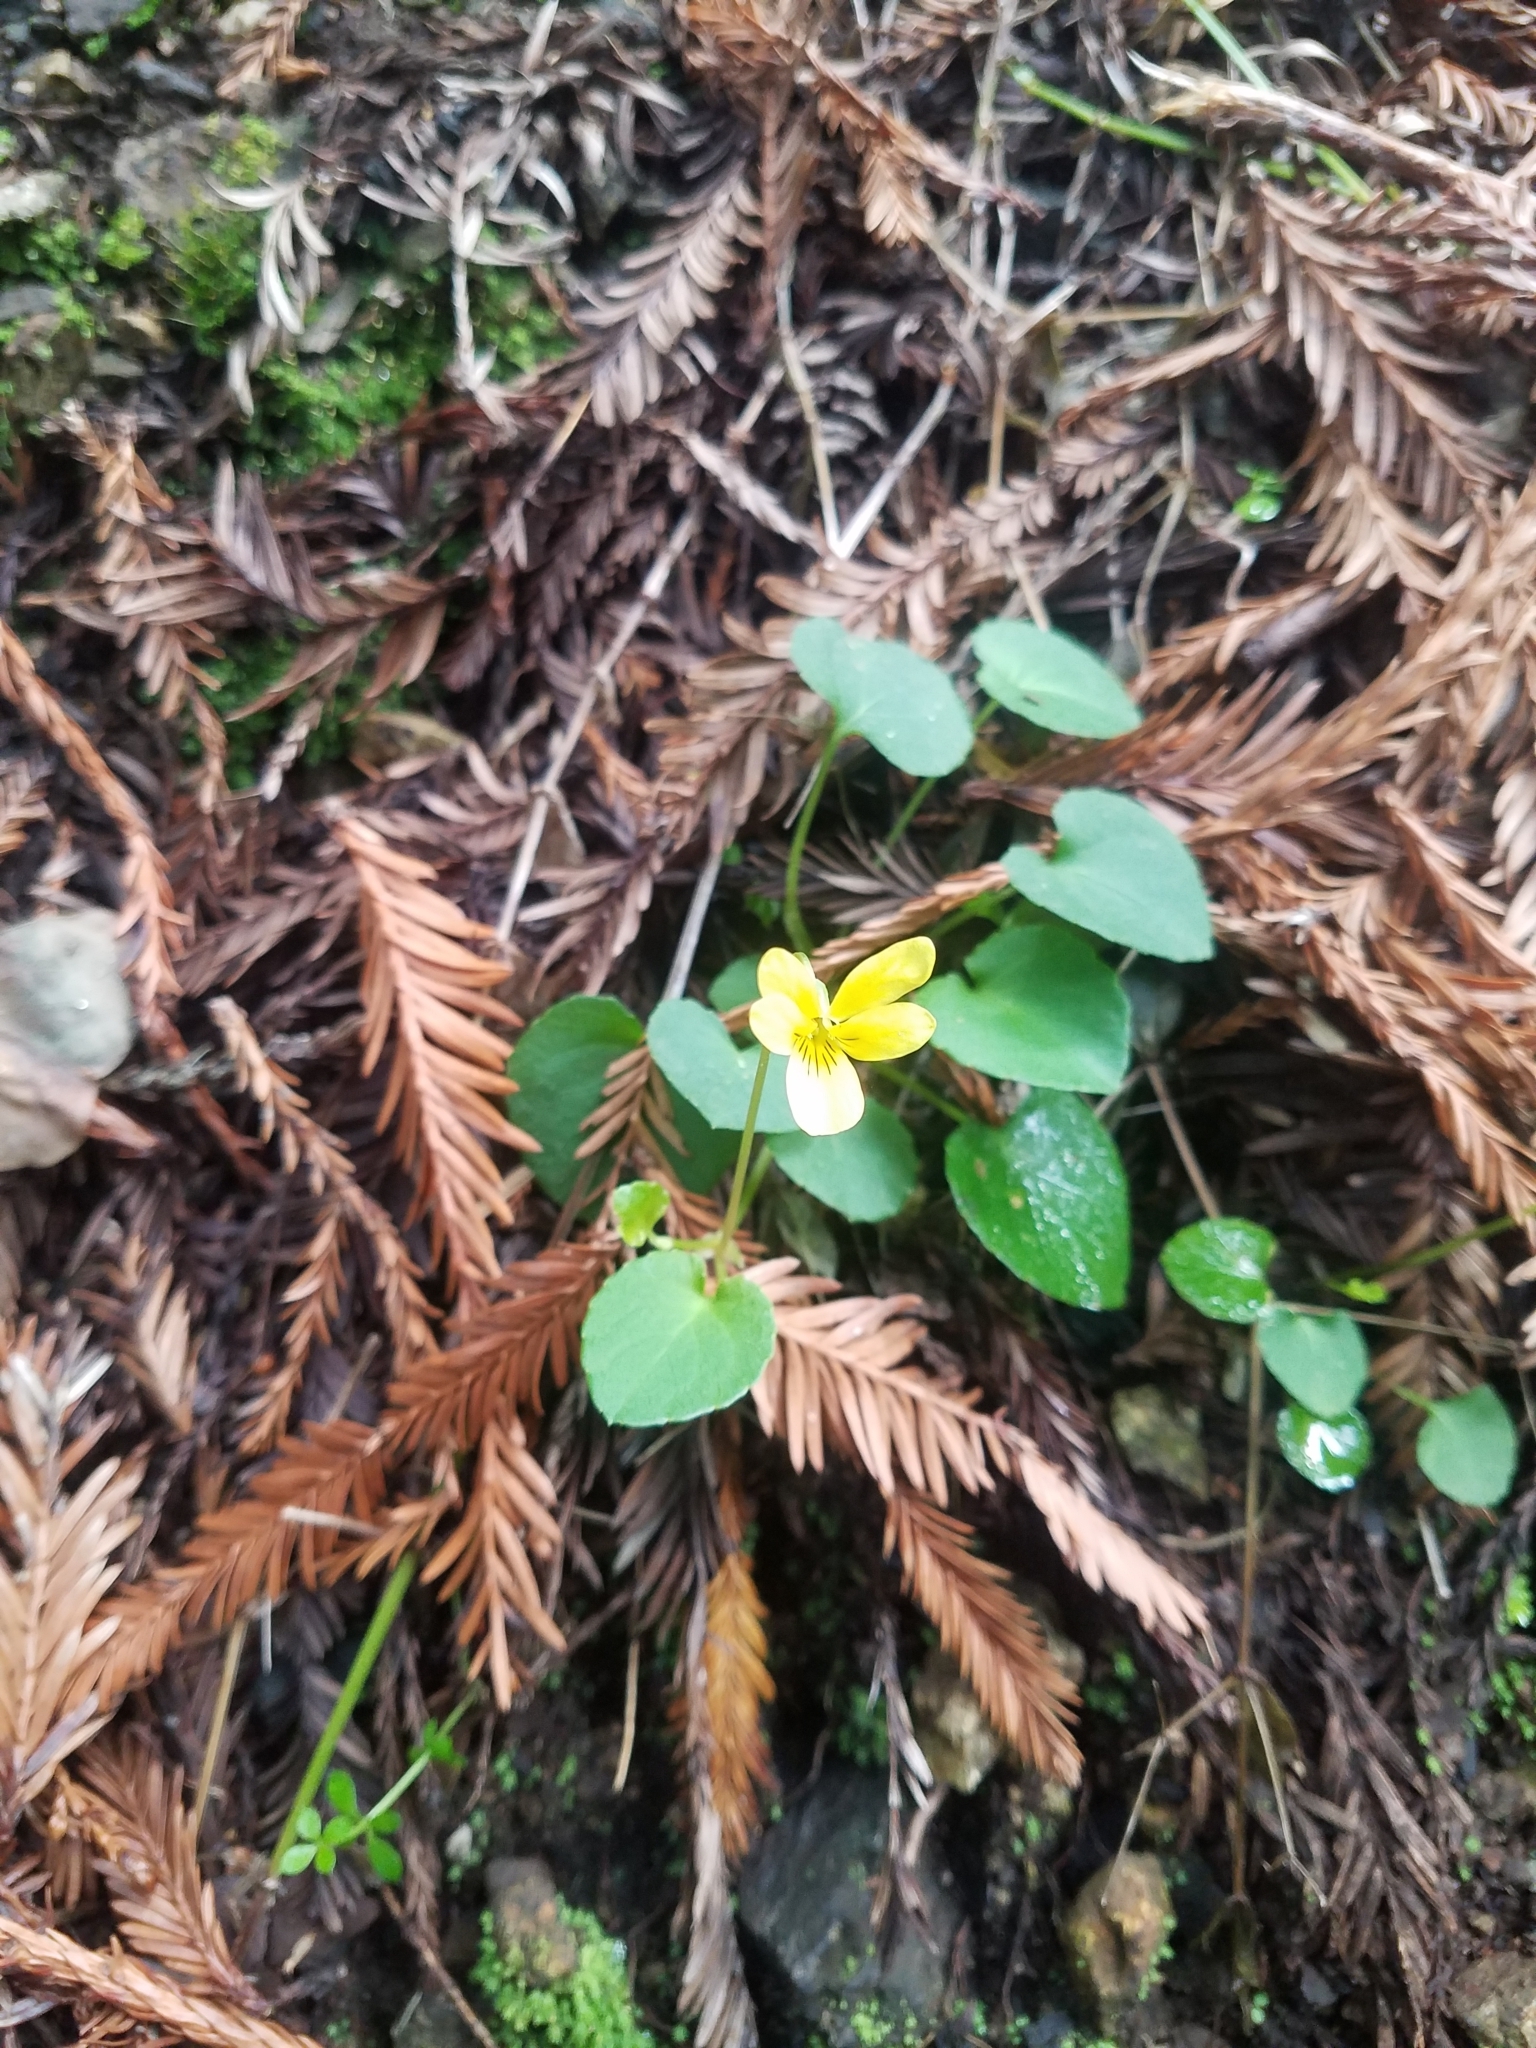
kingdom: Plantae
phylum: Tracheophyta
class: Magnoliopsida
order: Malpighiales
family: Violaceae
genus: Viola
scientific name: Viola sempervirens
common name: Evergreen violet
